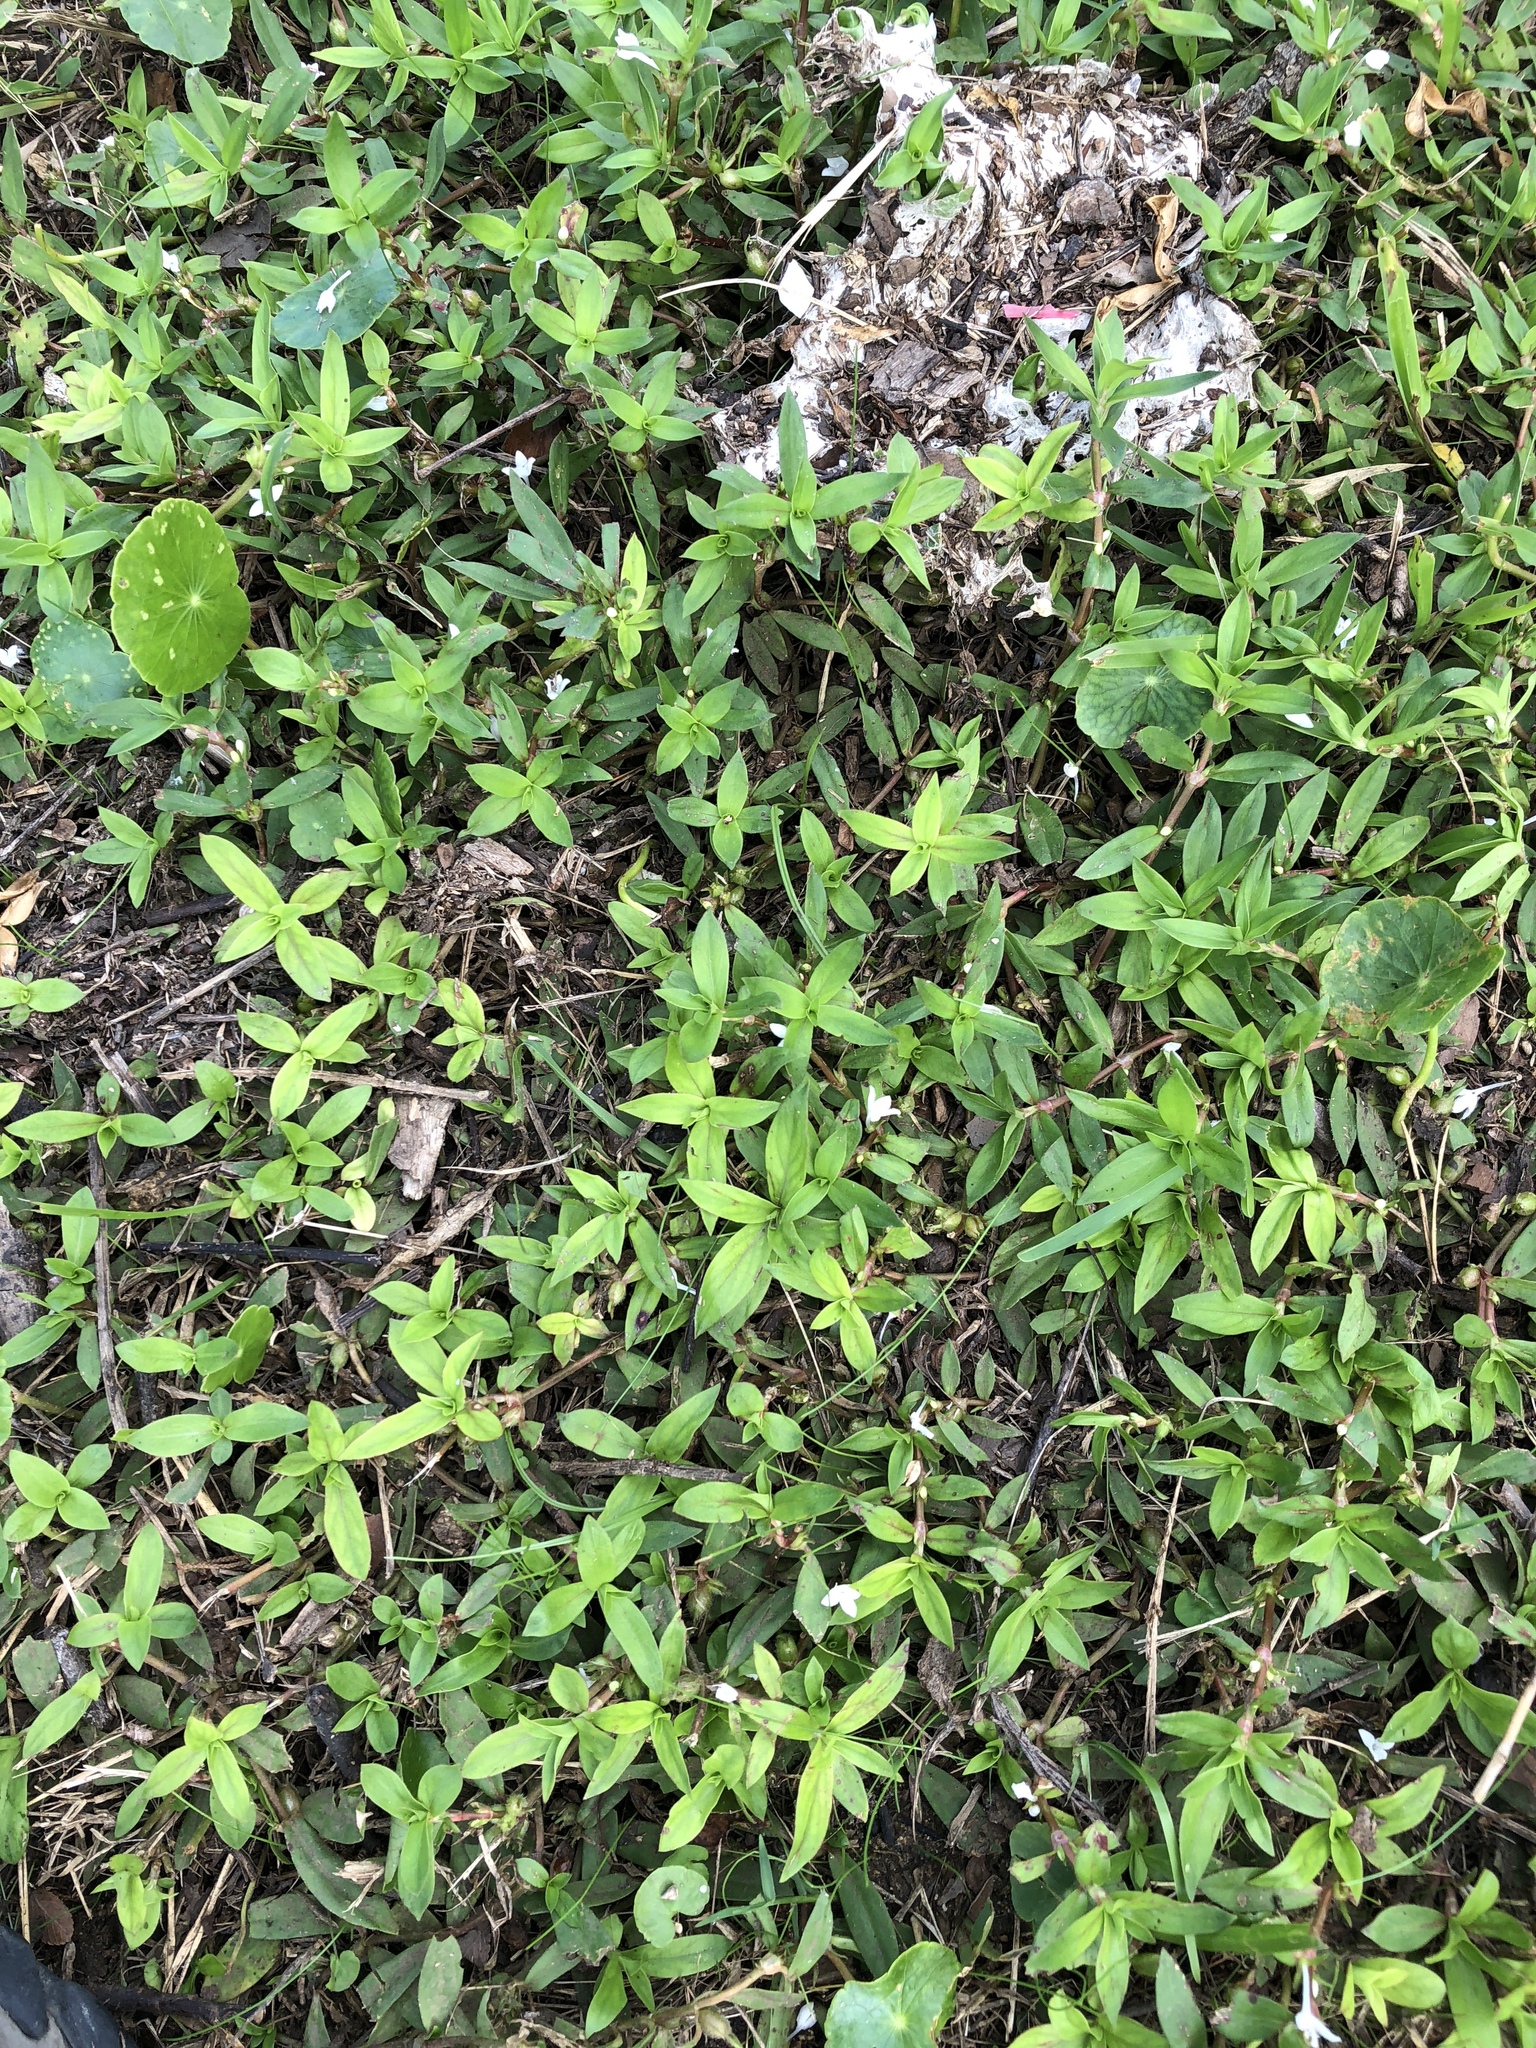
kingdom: Plantae
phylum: Tracheophyta
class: Magnoliopsida
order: Gentianales
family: Rubiaceae
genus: Diodia
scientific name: Diodia virginiana
